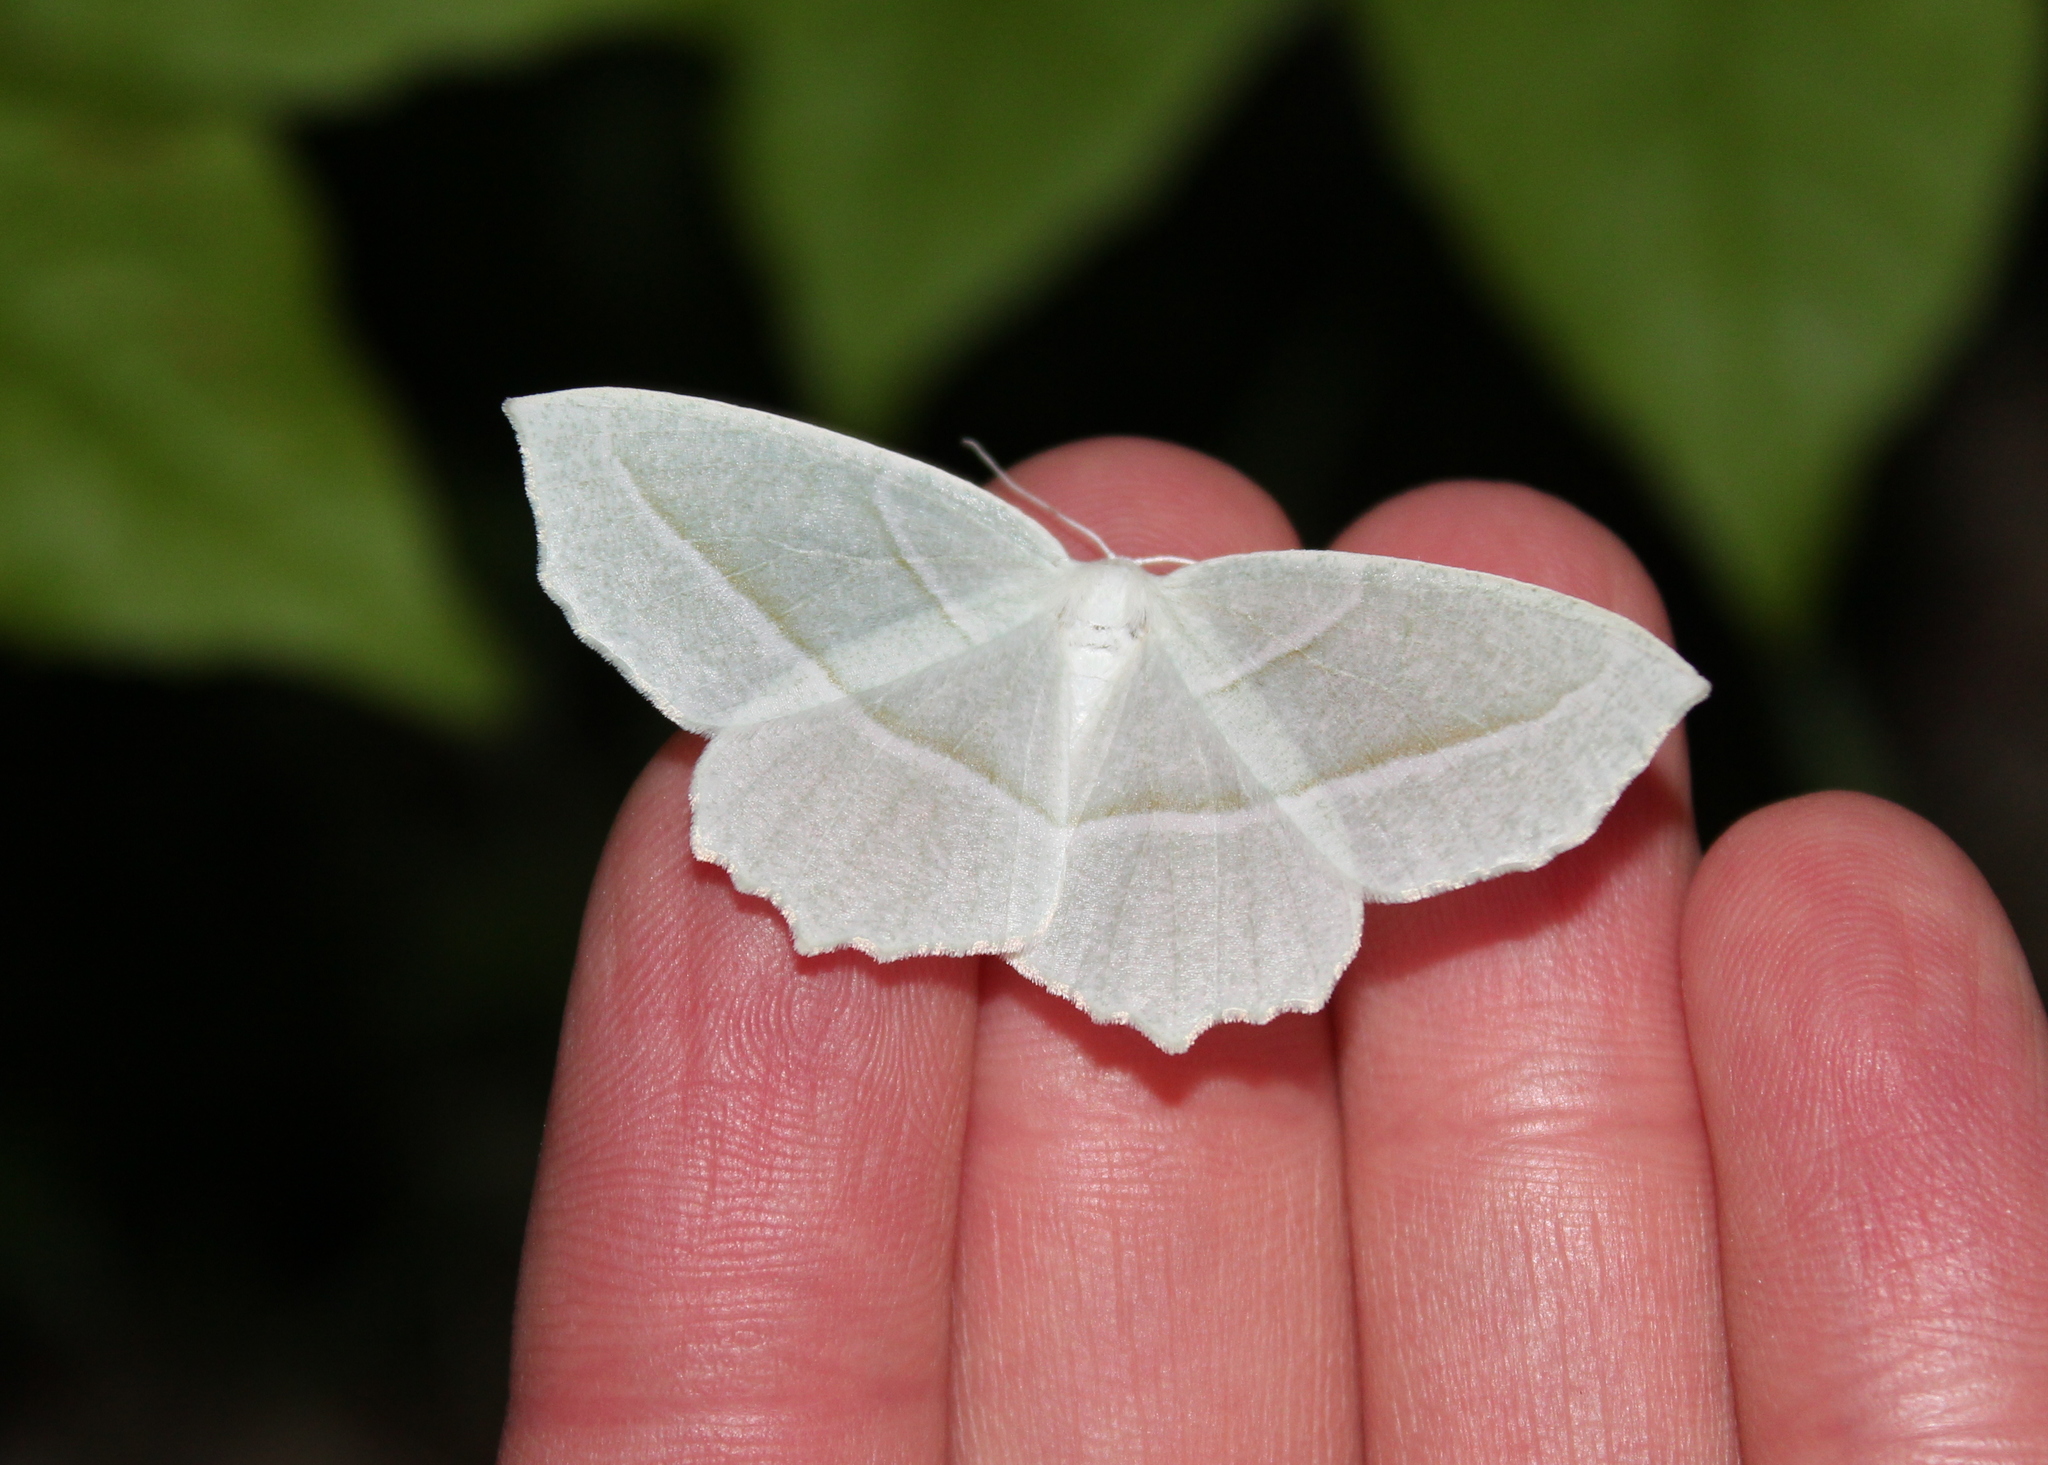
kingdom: Animalia
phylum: Arthropoda
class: Insecta
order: Lepidoptera
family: Geometridae
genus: Campaea
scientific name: Campaea perlata
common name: Fringed looper
